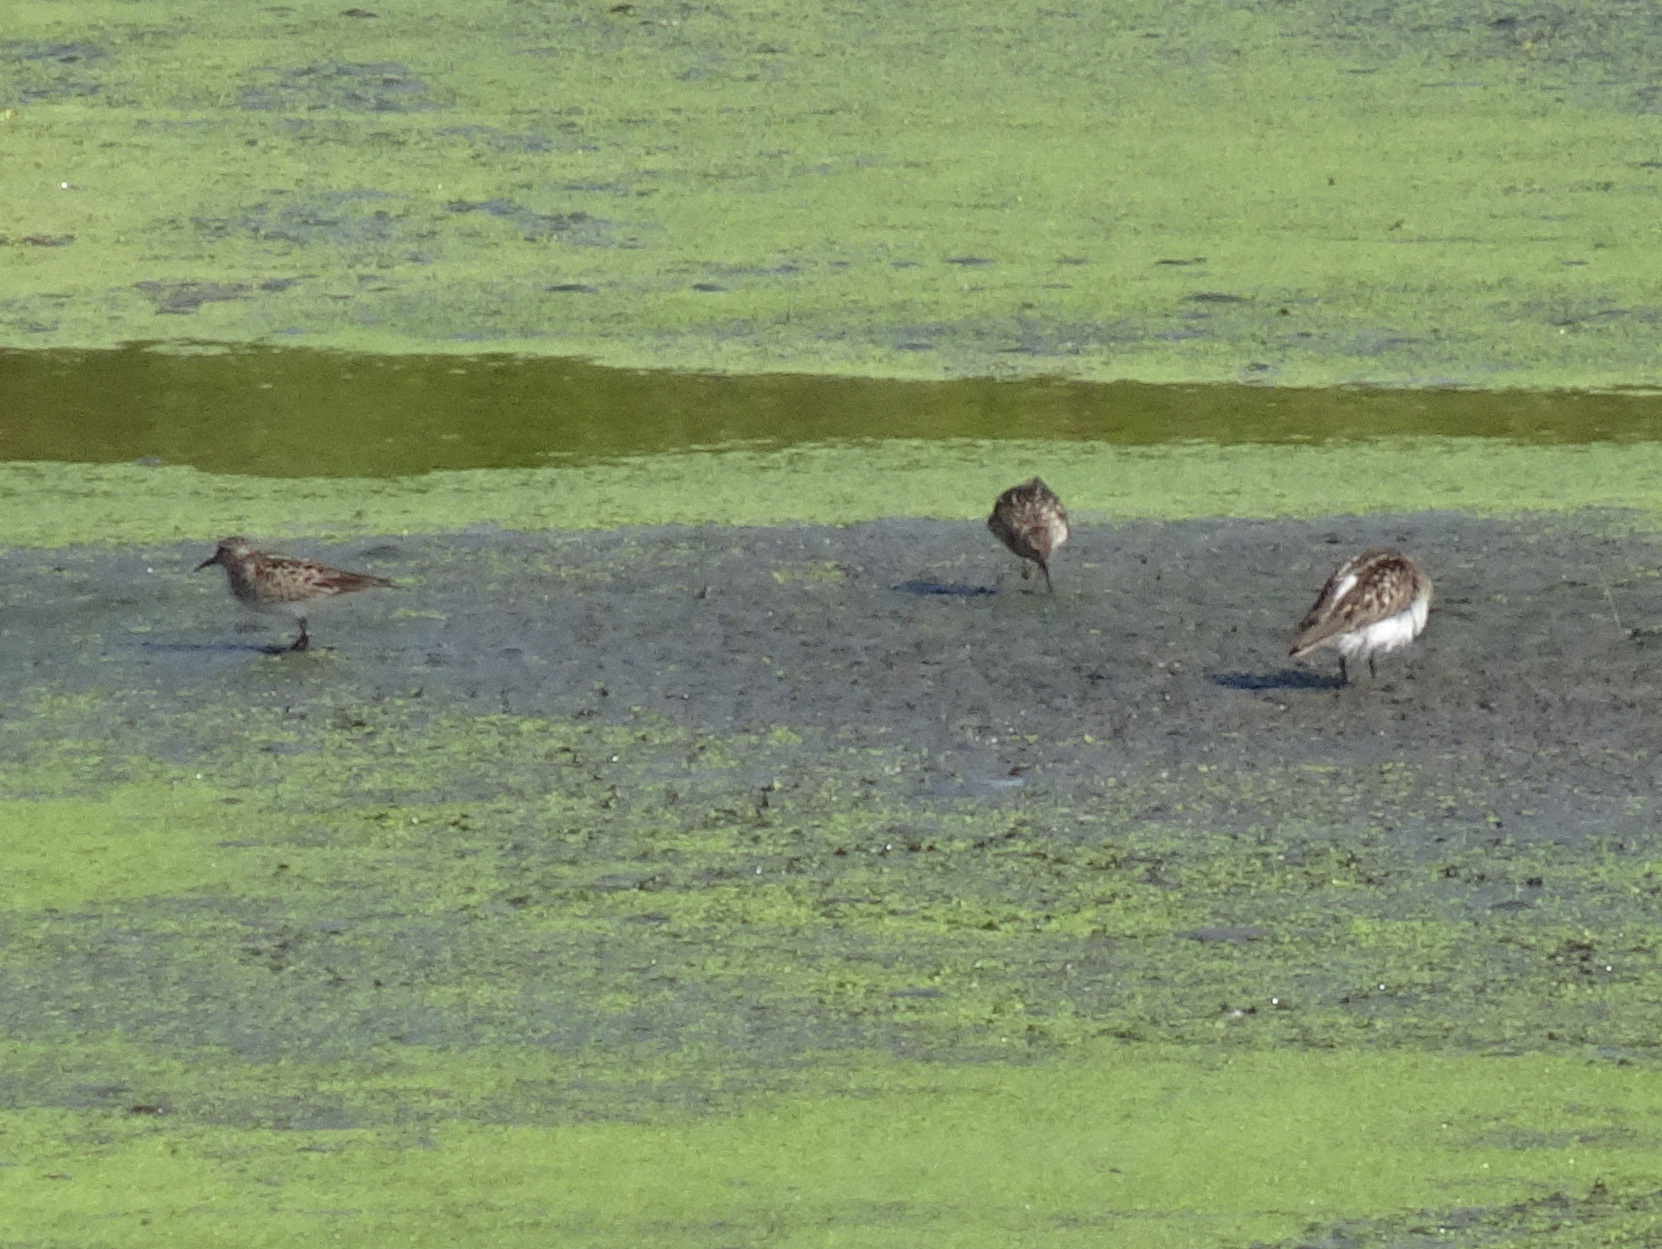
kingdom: Animalia
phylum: Chordata
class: Aves
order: Charadriiformes
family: Scolopacidae
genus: Calidris
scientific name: Calidris minutilla
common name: Least sandpiper
